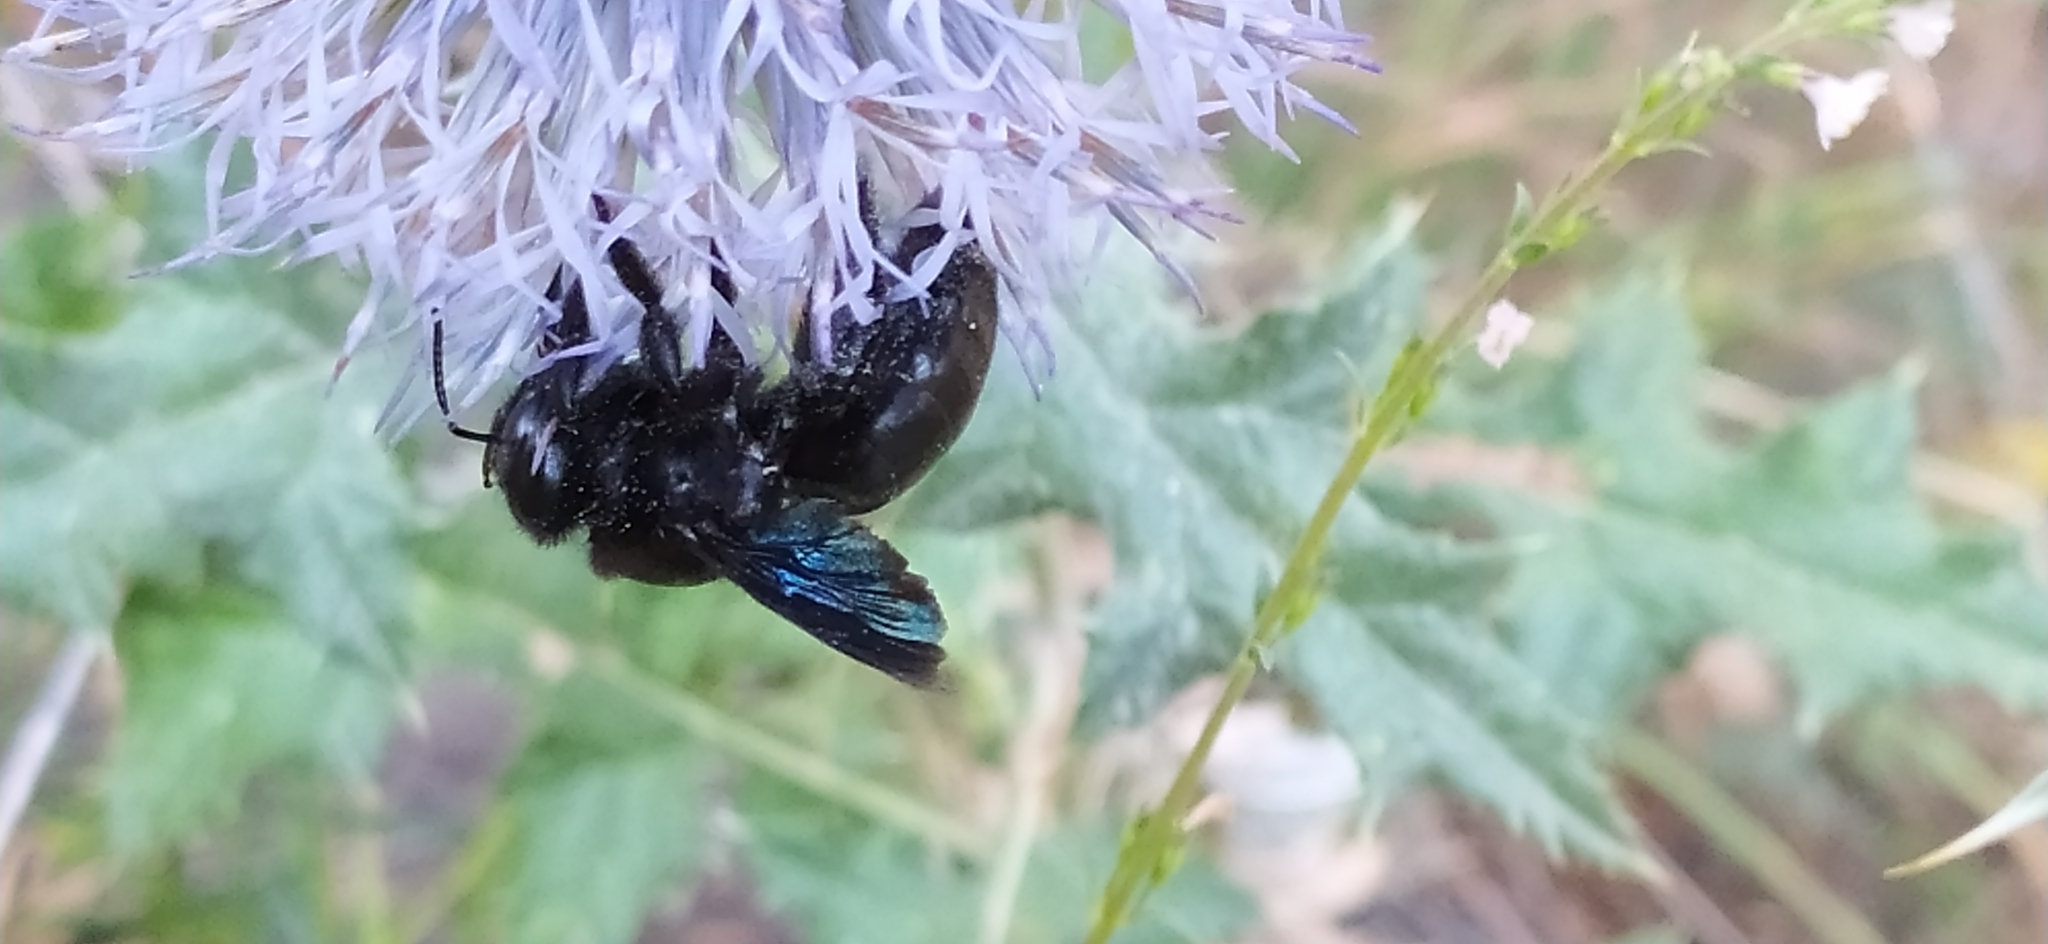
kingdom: Animalia
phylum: Arthropoda
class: Insecta
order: Hymenoptera
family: Apidae
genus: Xylocopa
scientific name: Xylocopa valga
